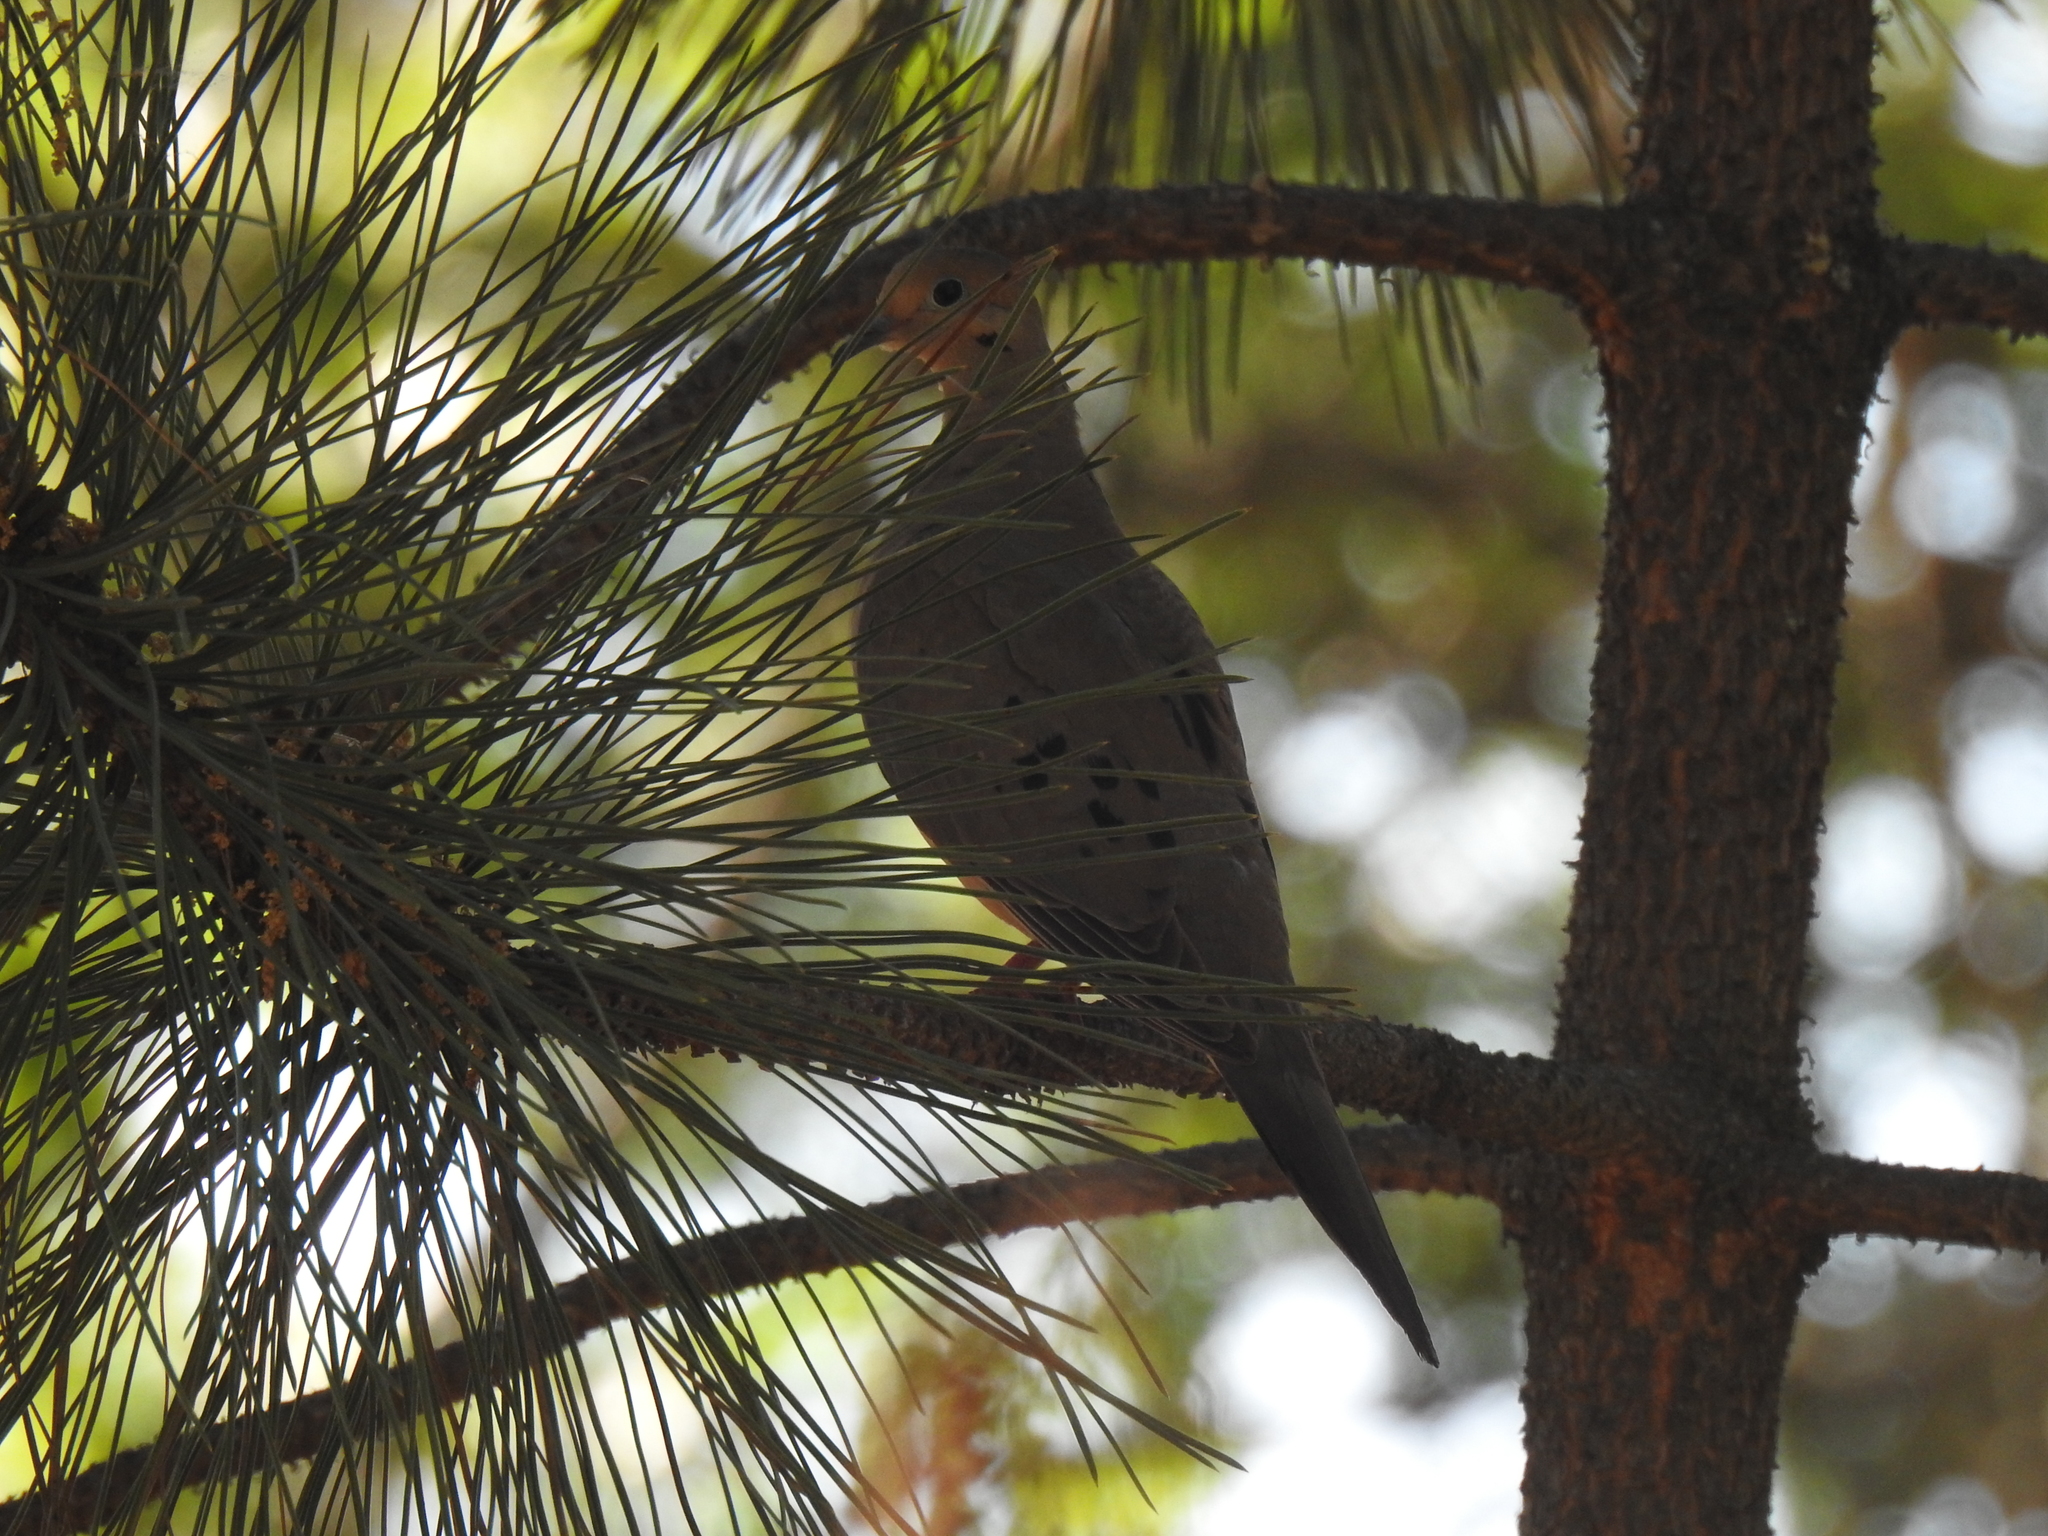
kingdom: Animalia
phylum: Chordata
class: Aves
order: Columbiformes
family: Columbidae
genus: Zenaida
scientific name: Zenaida macroura
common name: Mourning dove
